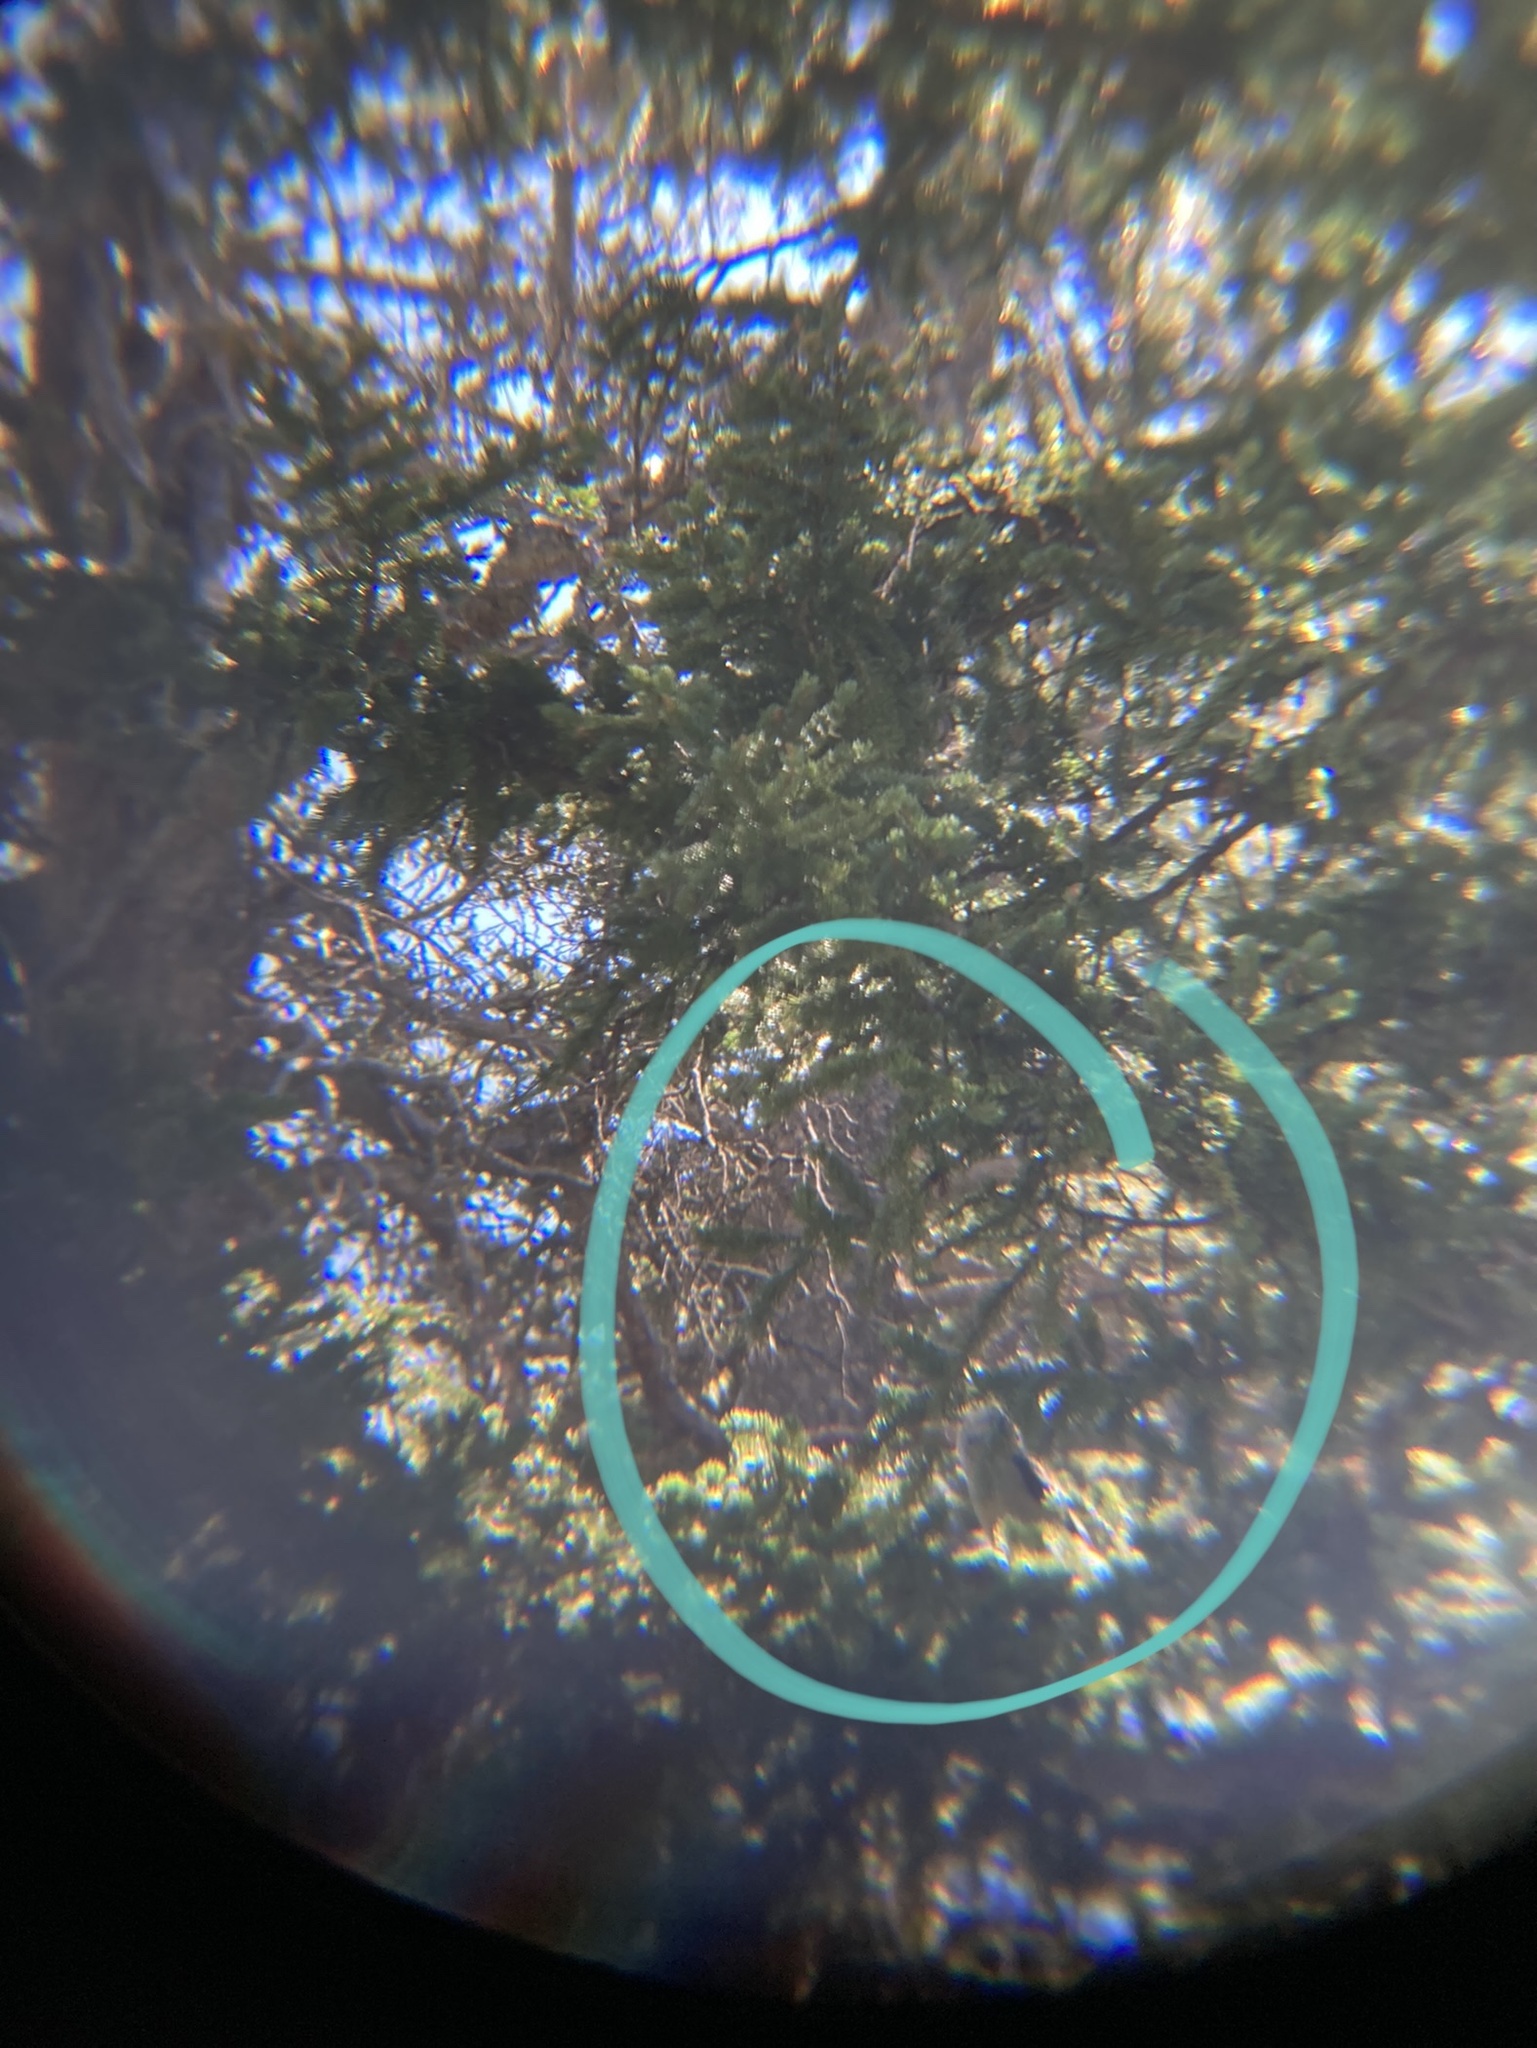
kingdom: Animalia
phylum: Chordata
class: Aves
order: Passeriformes
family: Corvidae
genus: Nucifraga
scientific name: Nucifraga columbiana
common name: Clark's nutcracker
